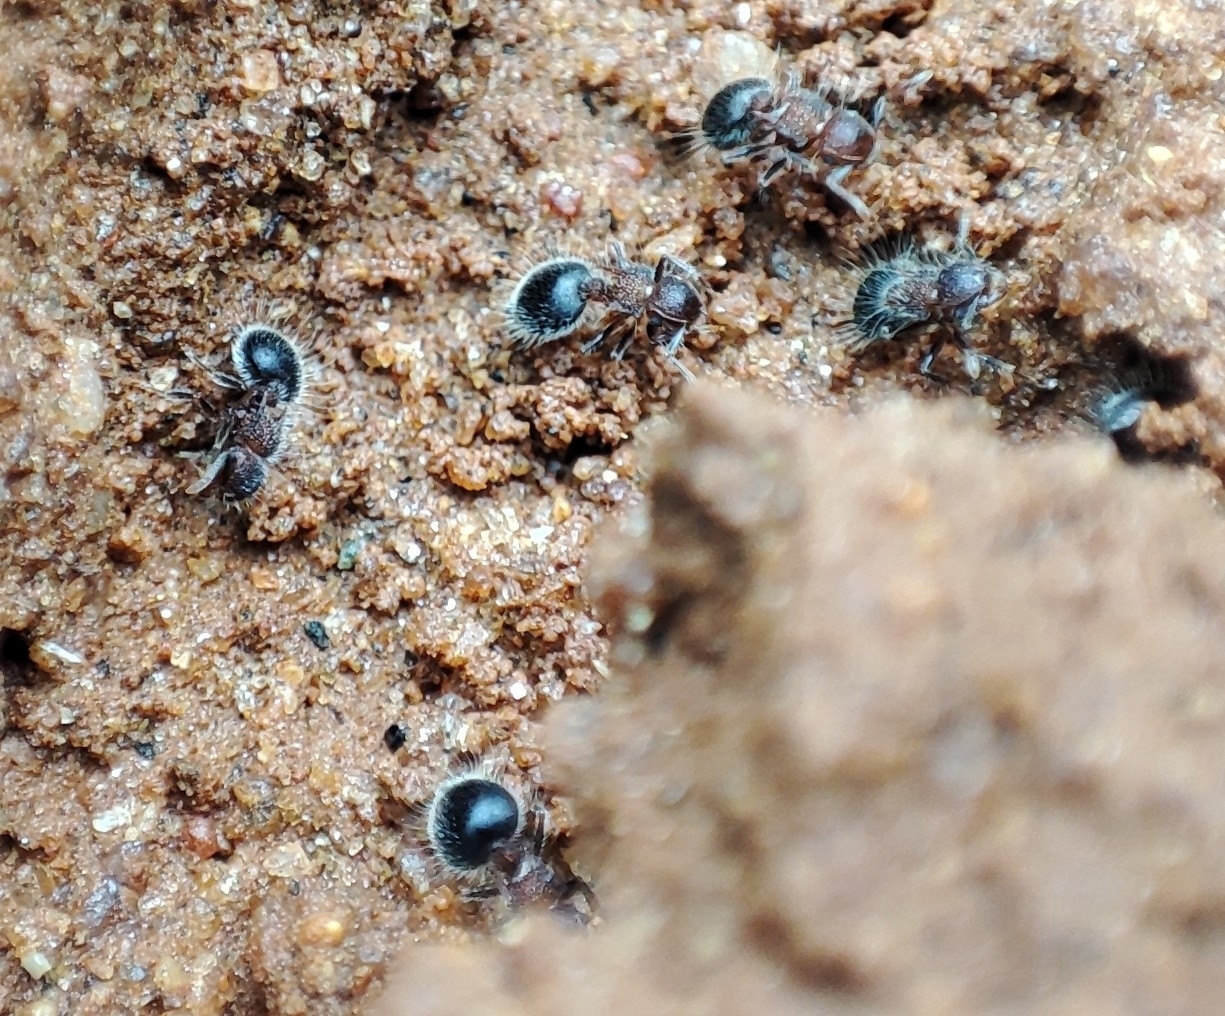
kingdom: Animalia
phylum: Arthropoda
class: Insecta
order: Hymenoptera
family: Formicidae
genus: Meranoplus
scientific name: Meranoplus bicolor
